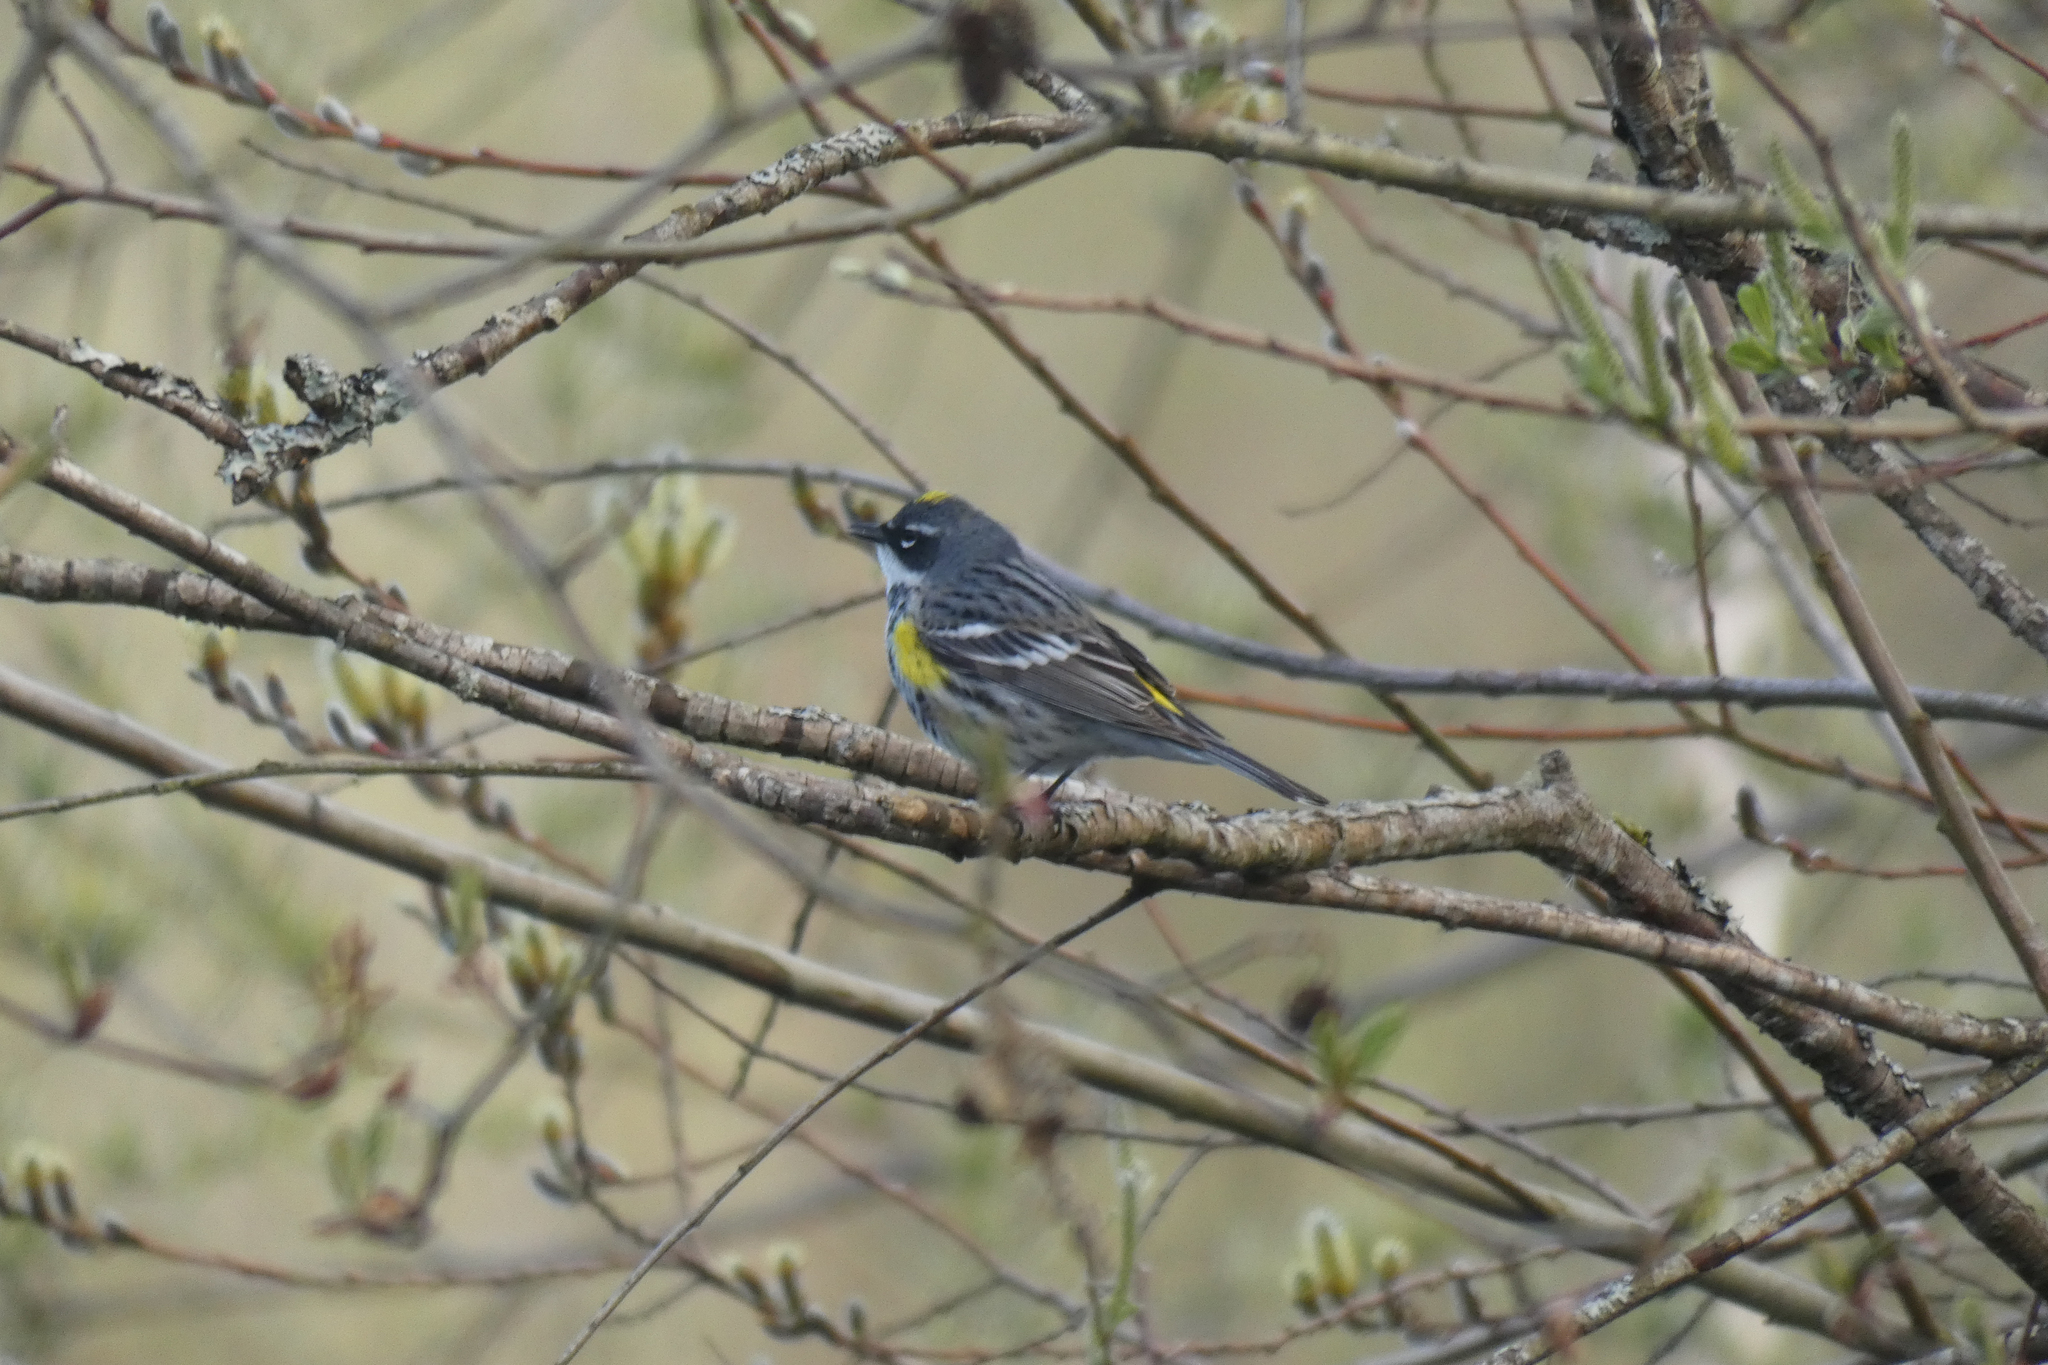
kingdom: Animalia
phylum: Chordata
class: Aves
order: Passeriformes
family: Parulidae
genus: Setophaga
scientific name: Setophaga coronata
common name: Myrtle warbler
